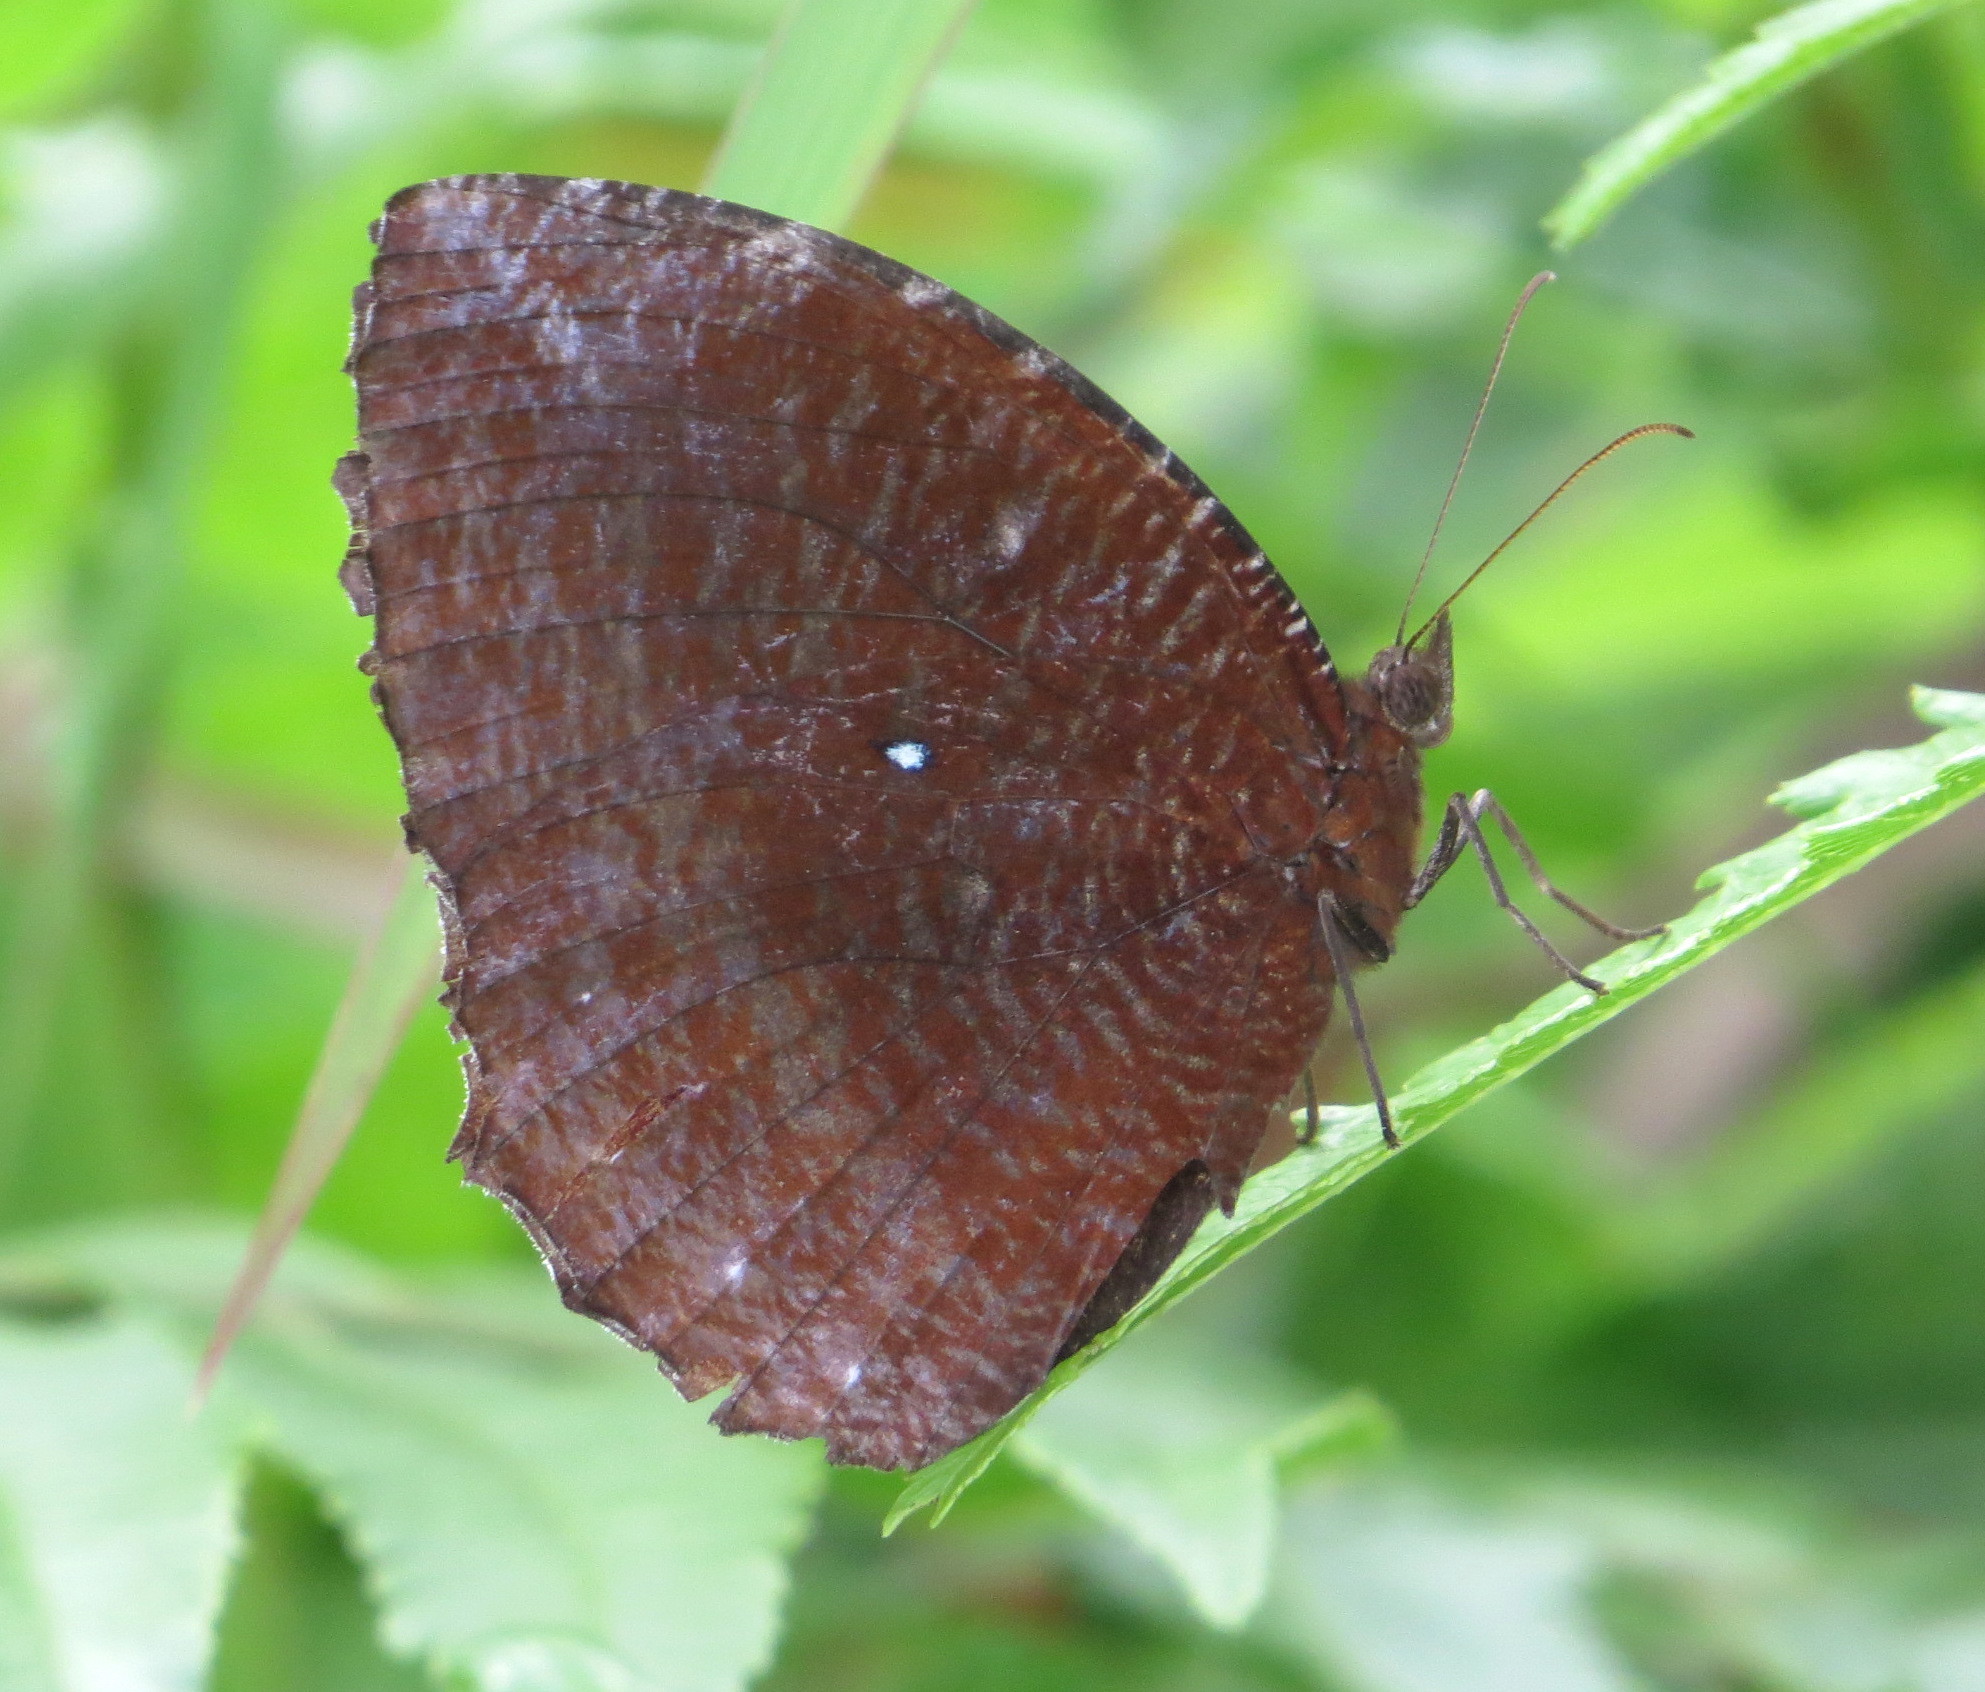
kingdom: Animalia
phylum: Arthropoda
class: Insecta
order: Lepidoptera
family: Nymphalidae
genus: Elymnias
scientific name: Elymnias hypermnestra
